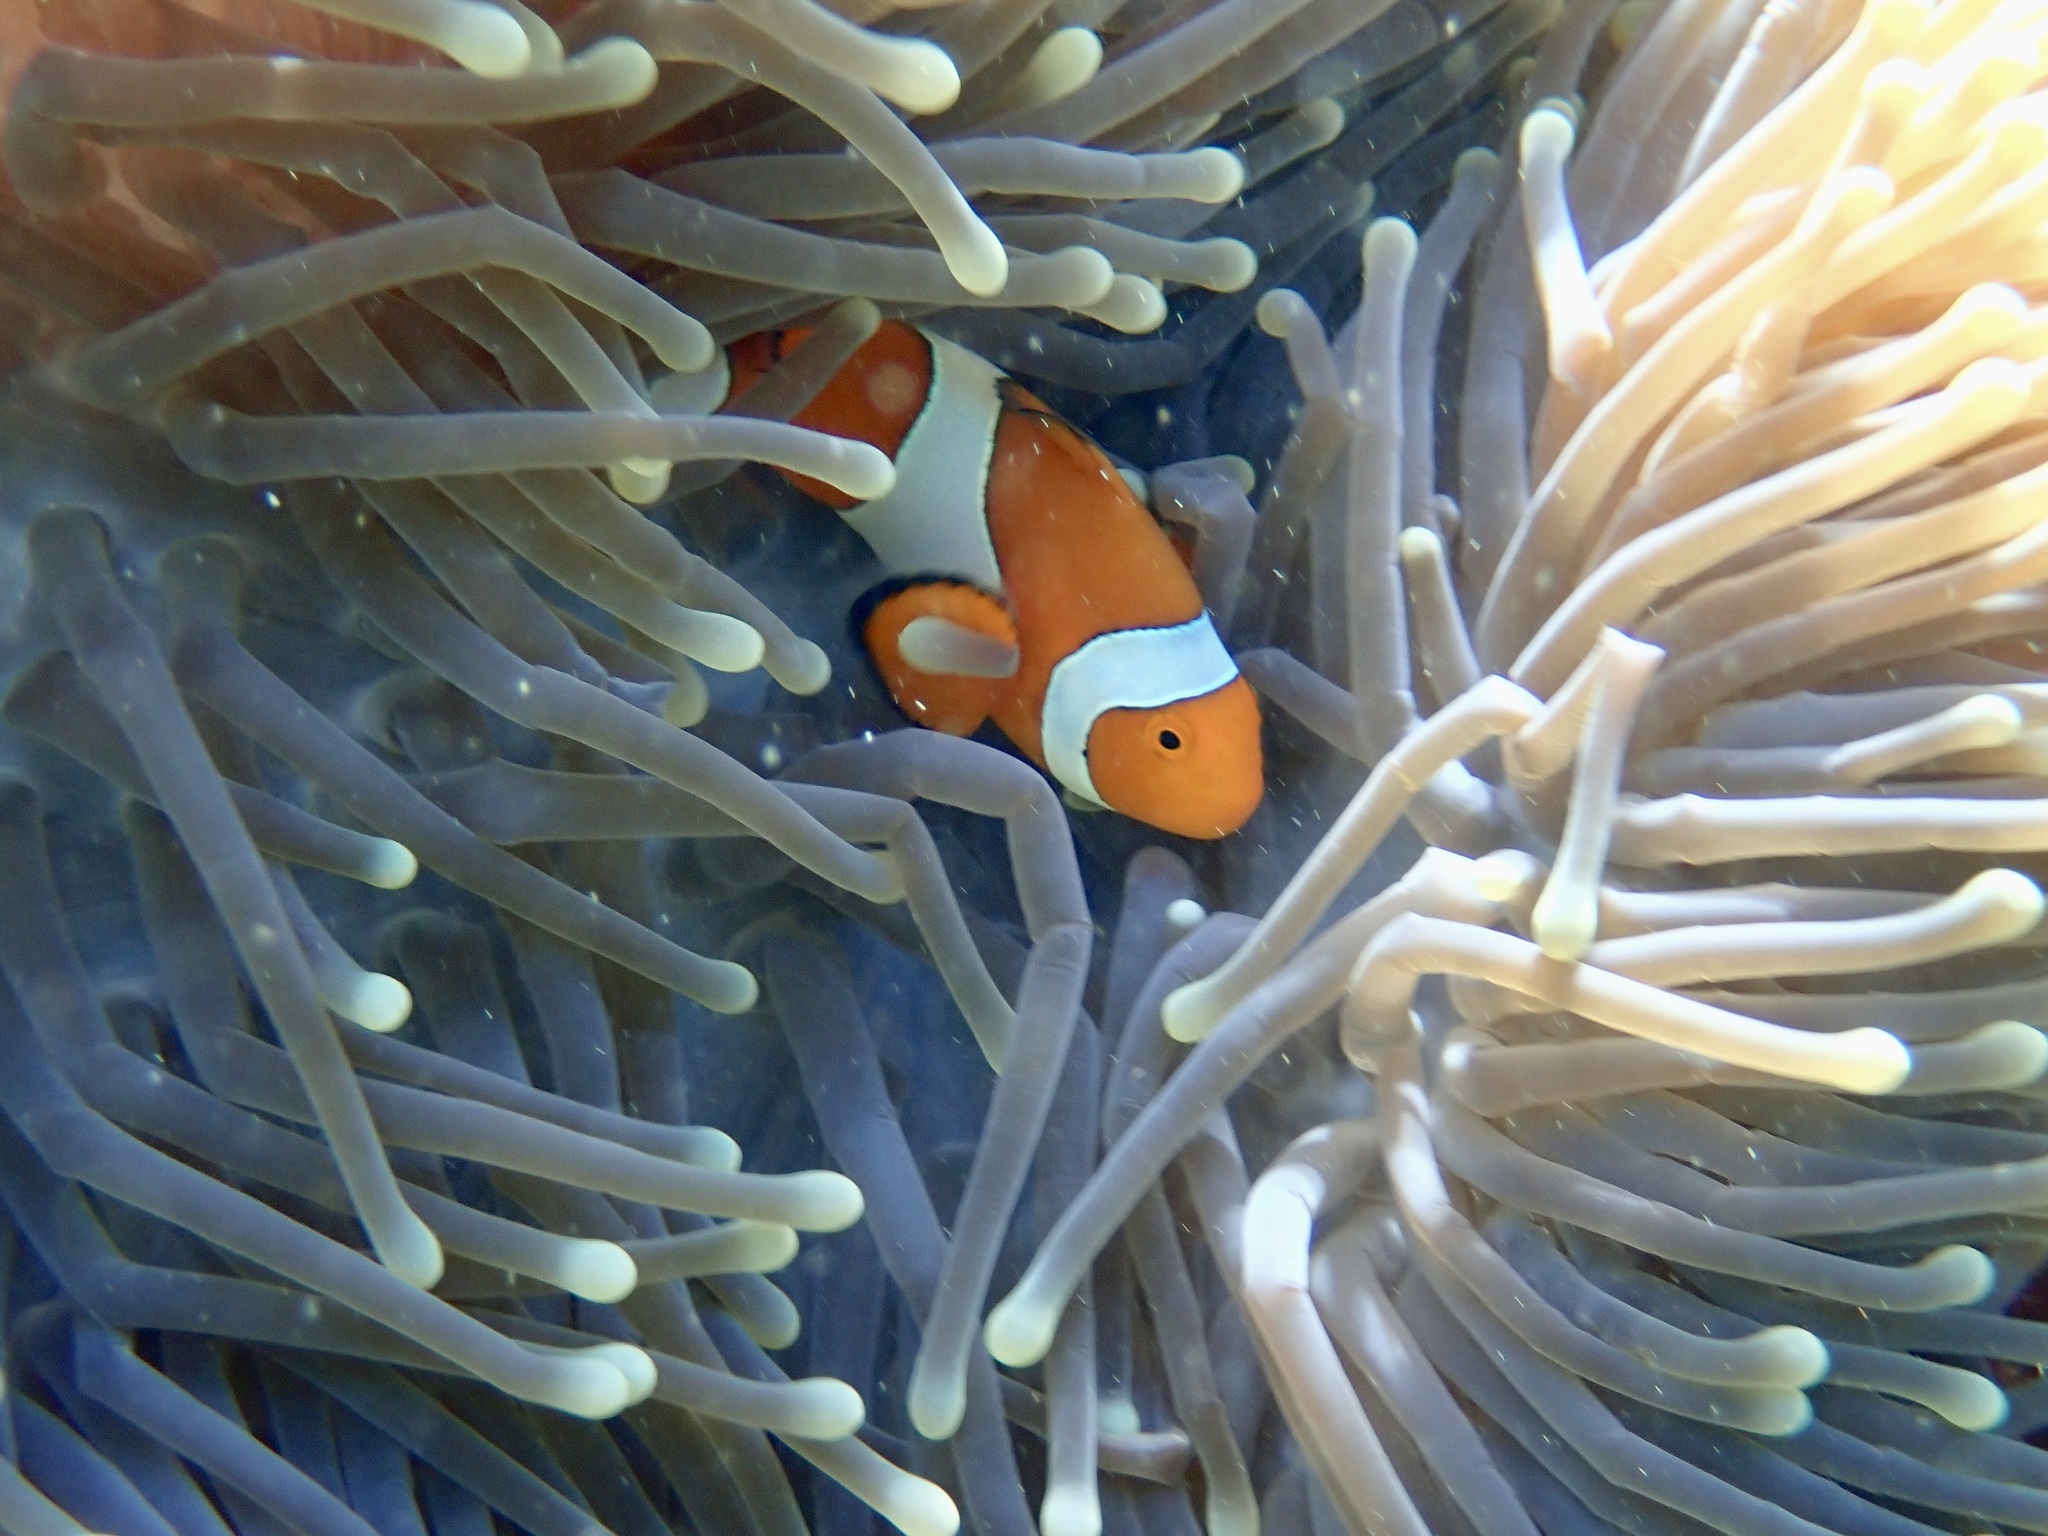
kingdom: Animalia
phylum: Chordata
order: Perciformes
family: Pomacentridae
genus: Amphiprion
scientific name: Amphiprion ocellaris
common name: Clown anemonefish
